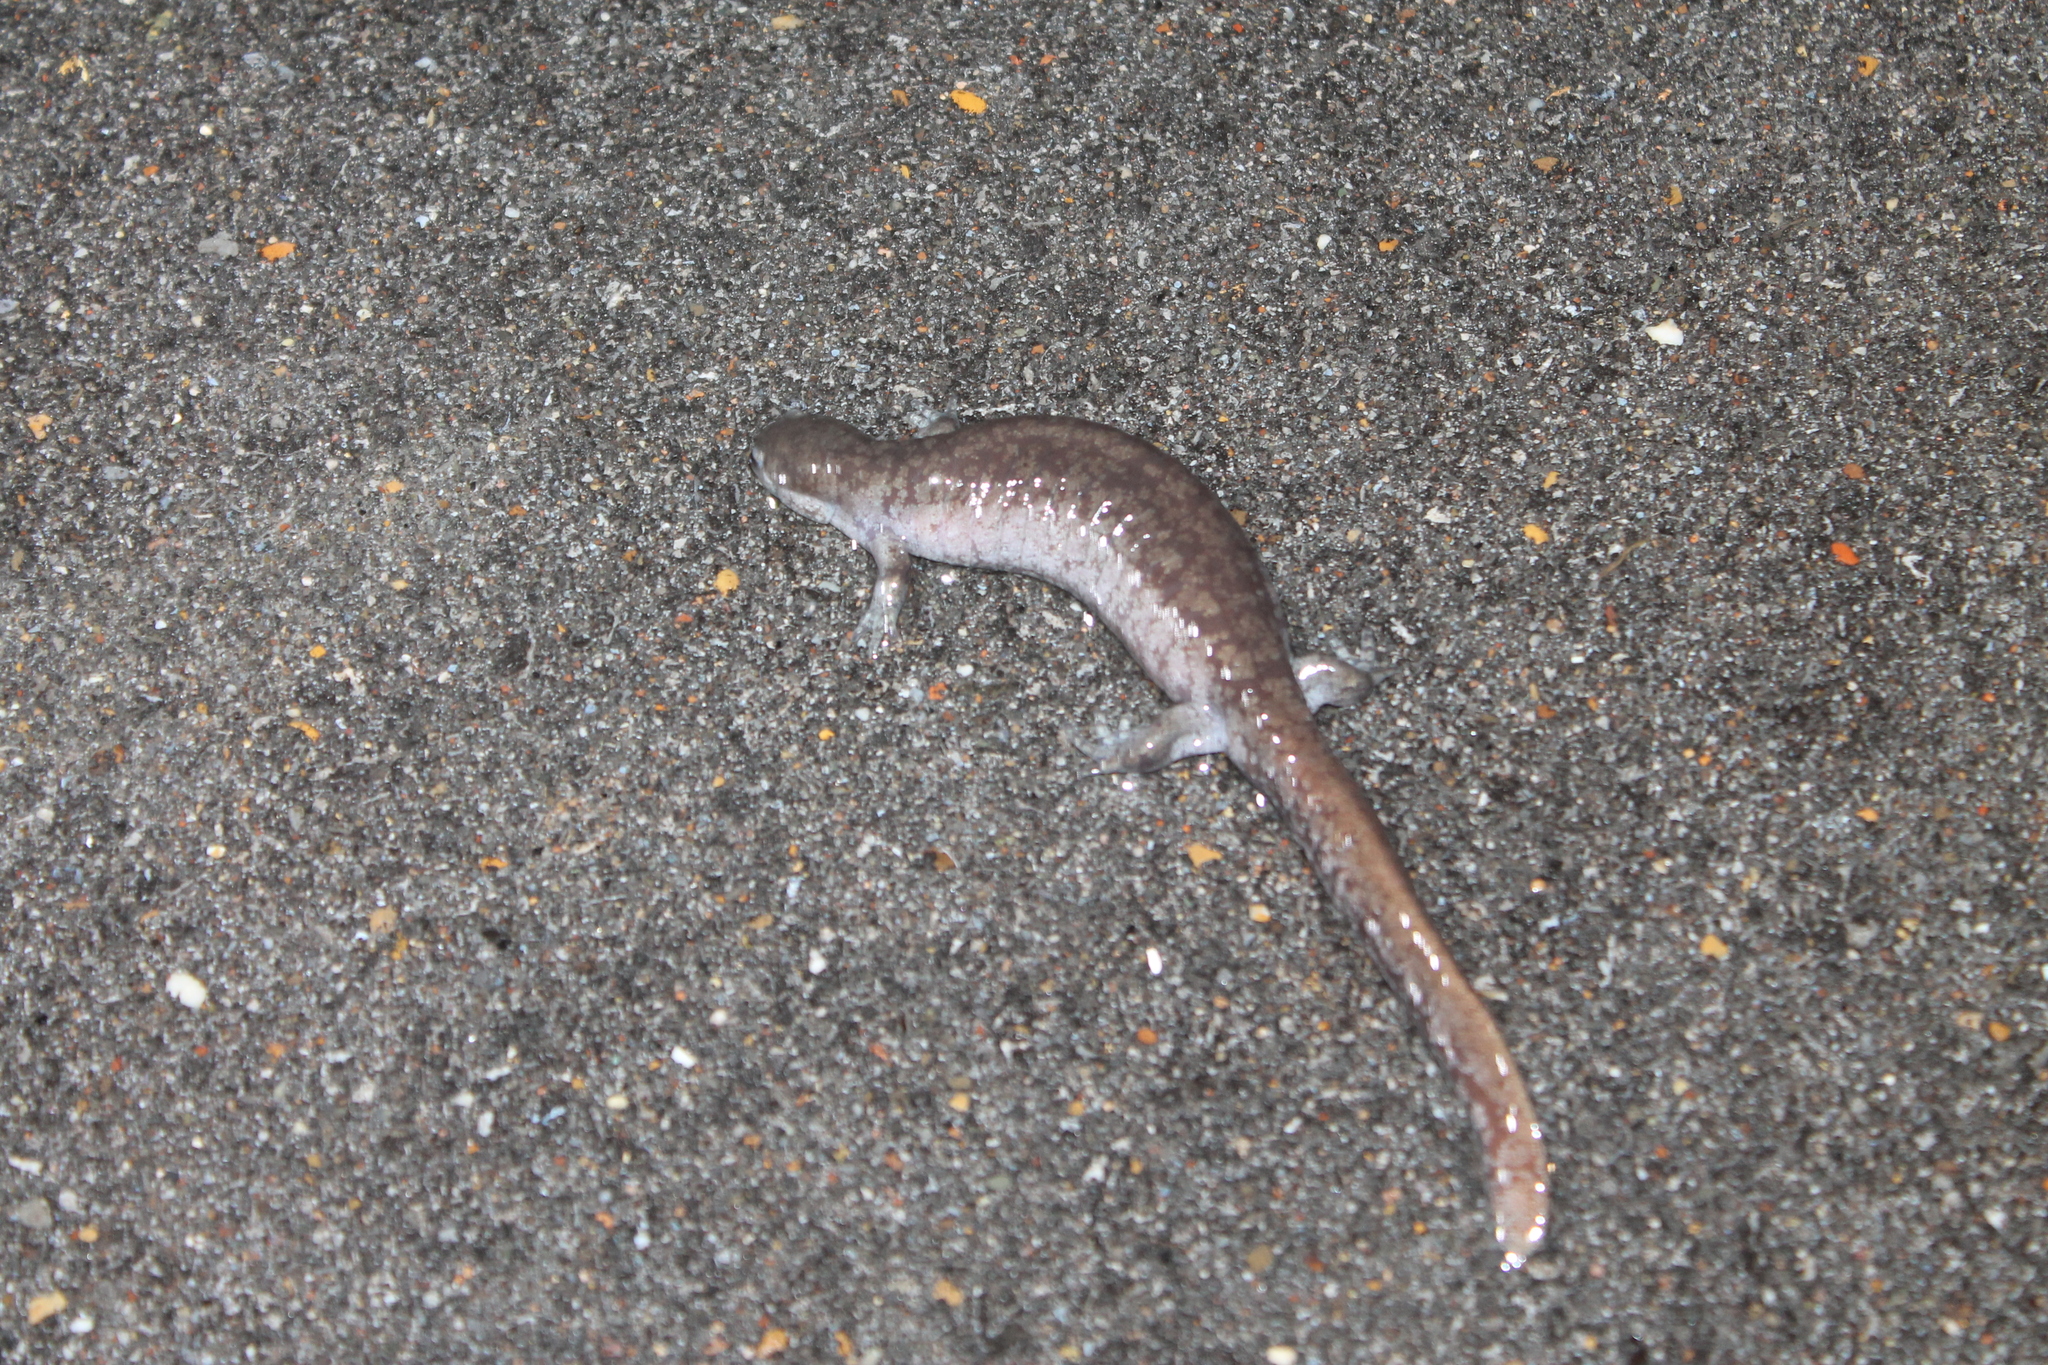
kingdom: Animalia
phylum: Chordata
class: Amphibia
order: Caudata
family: Ambystomatidae
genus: Ambystoma
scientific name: Ambystoma texanum
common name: Small-mouth salamander
